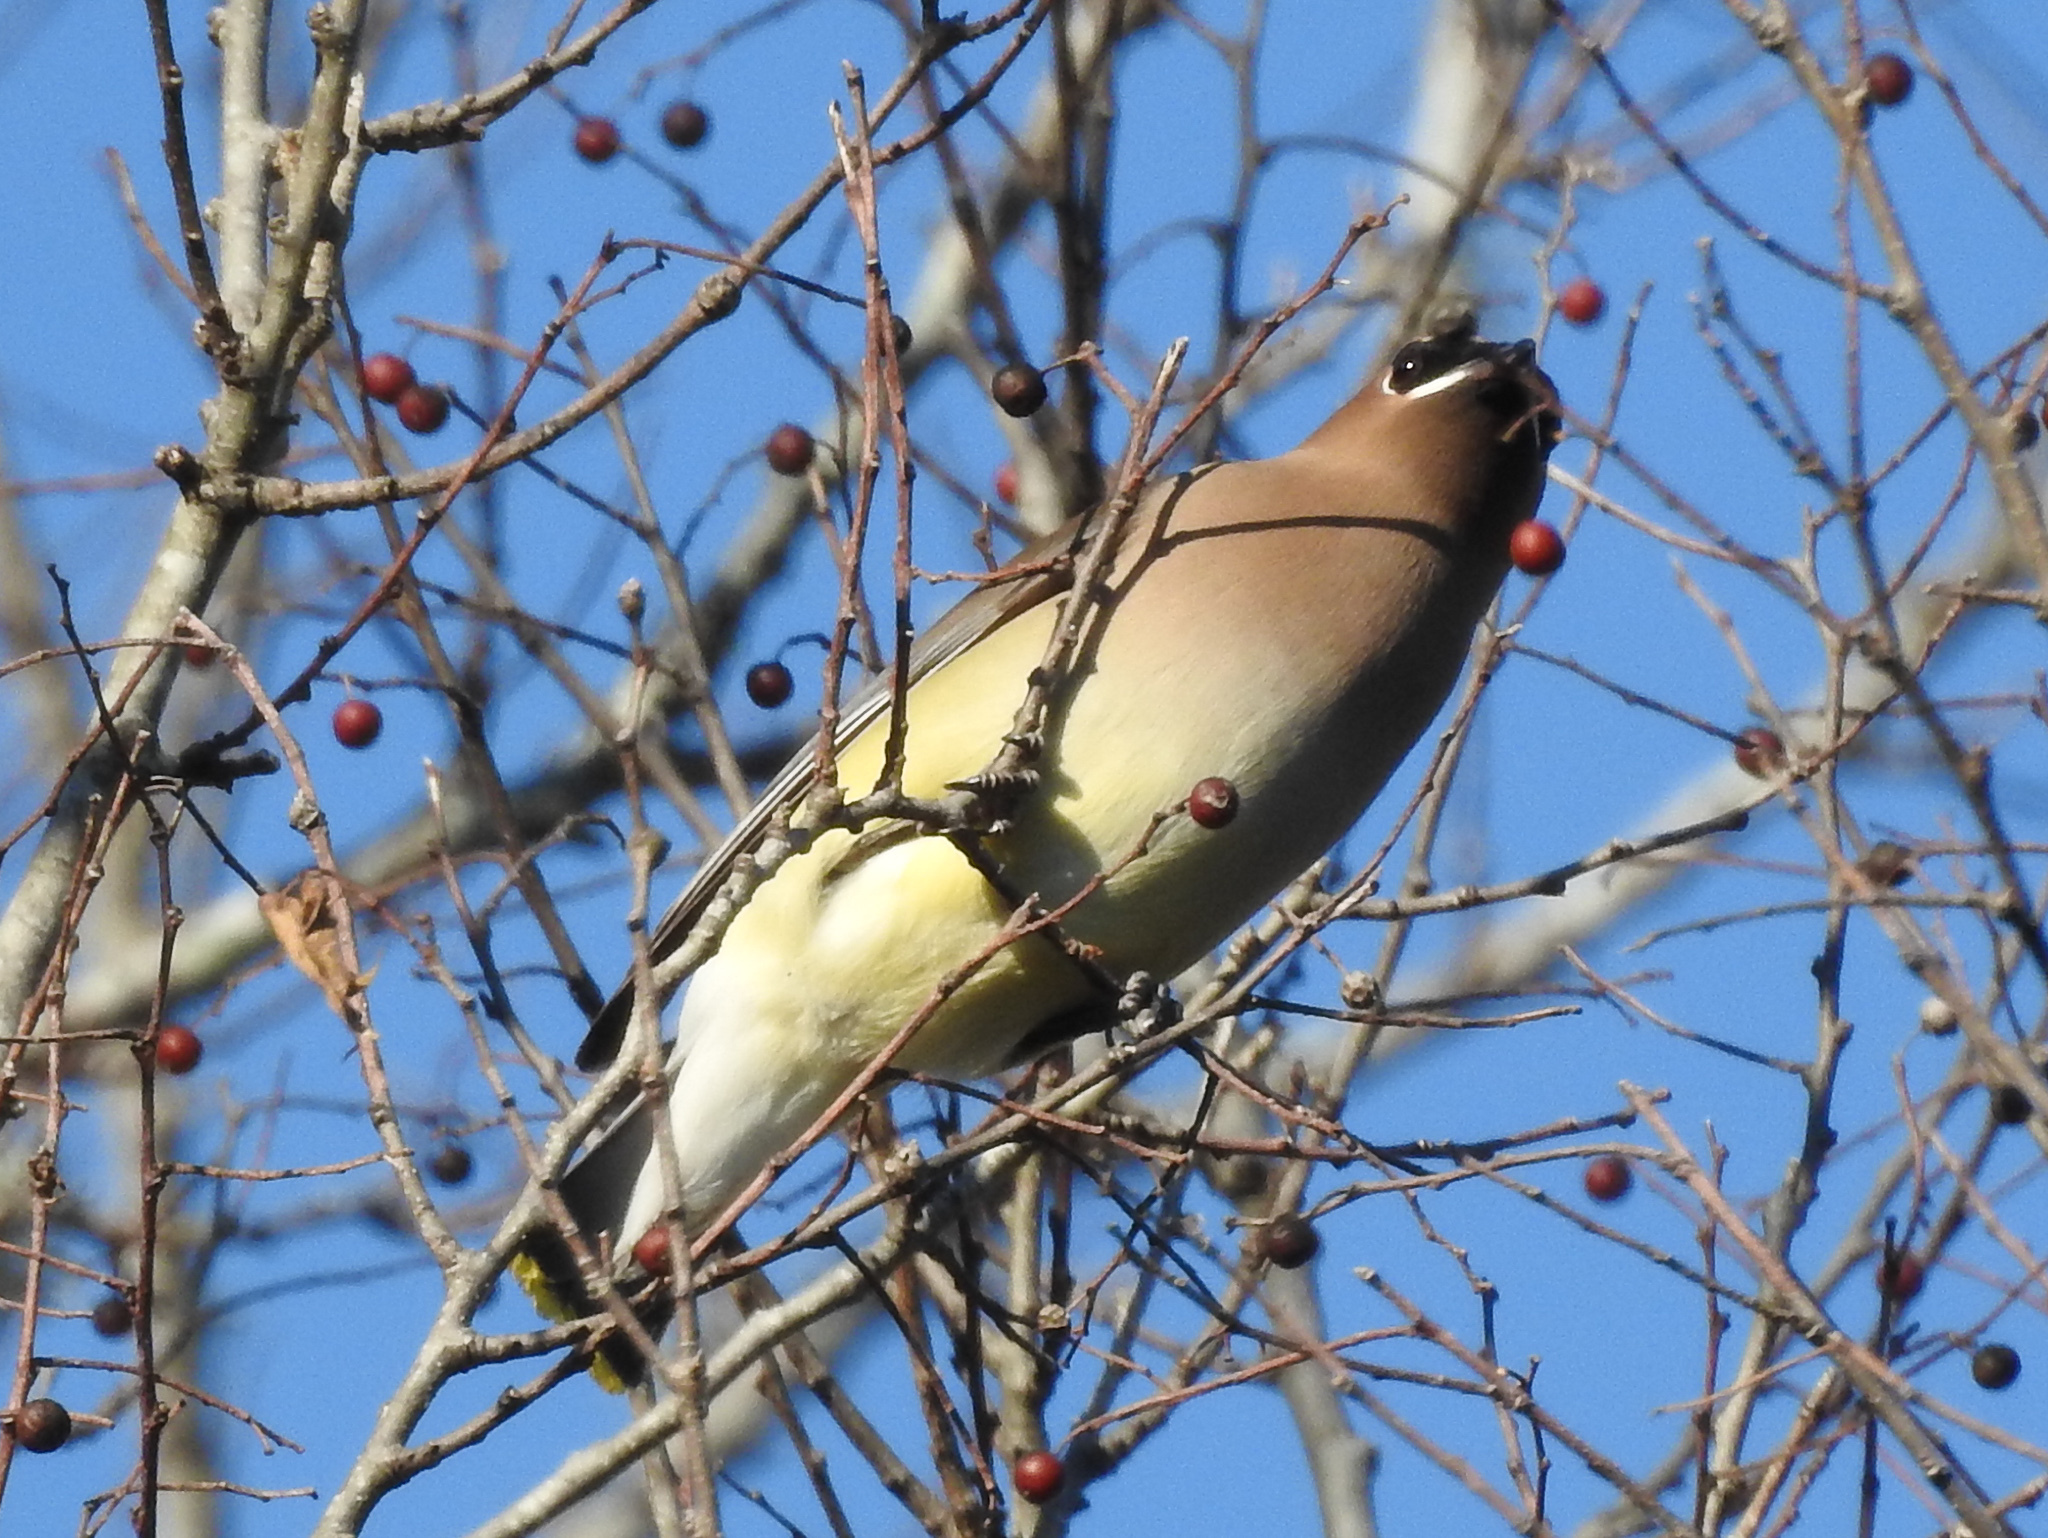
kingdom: Animalia
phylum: Chordata
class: Aves
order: Passeriformes
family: Bombycillidae
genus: Bombycilla
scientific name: Bombycilla cedrorum
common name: Cedar waxwing
